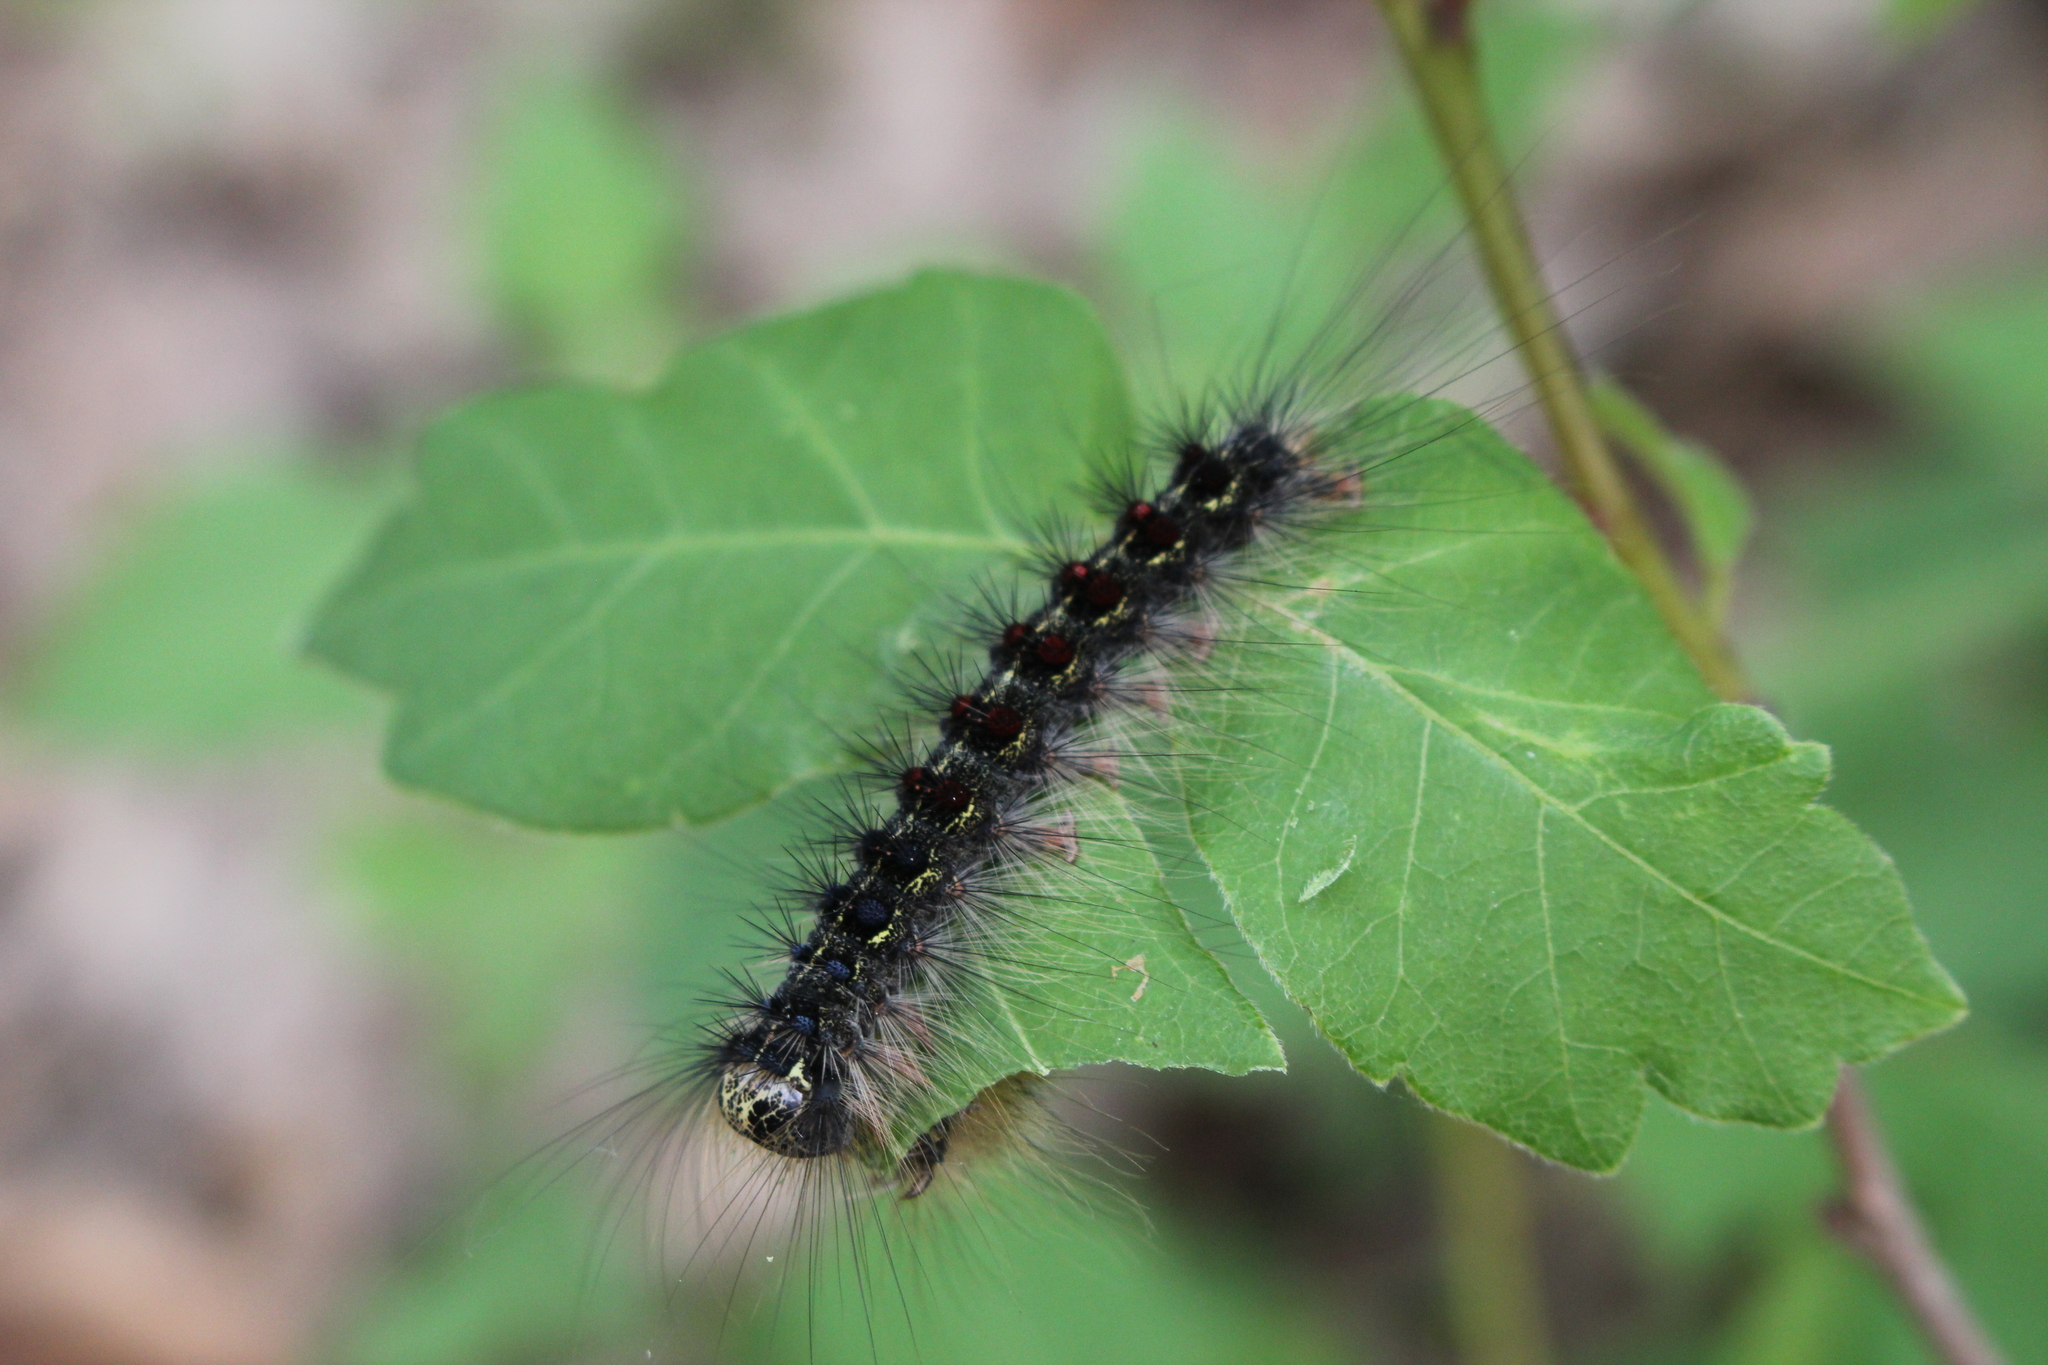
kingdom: Animalia
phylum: Arthropoda
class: Insecta
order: Lepidoptera
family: Erebidae
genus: Lymantria
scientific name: Lymantria dispar
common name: Gypsy moth
